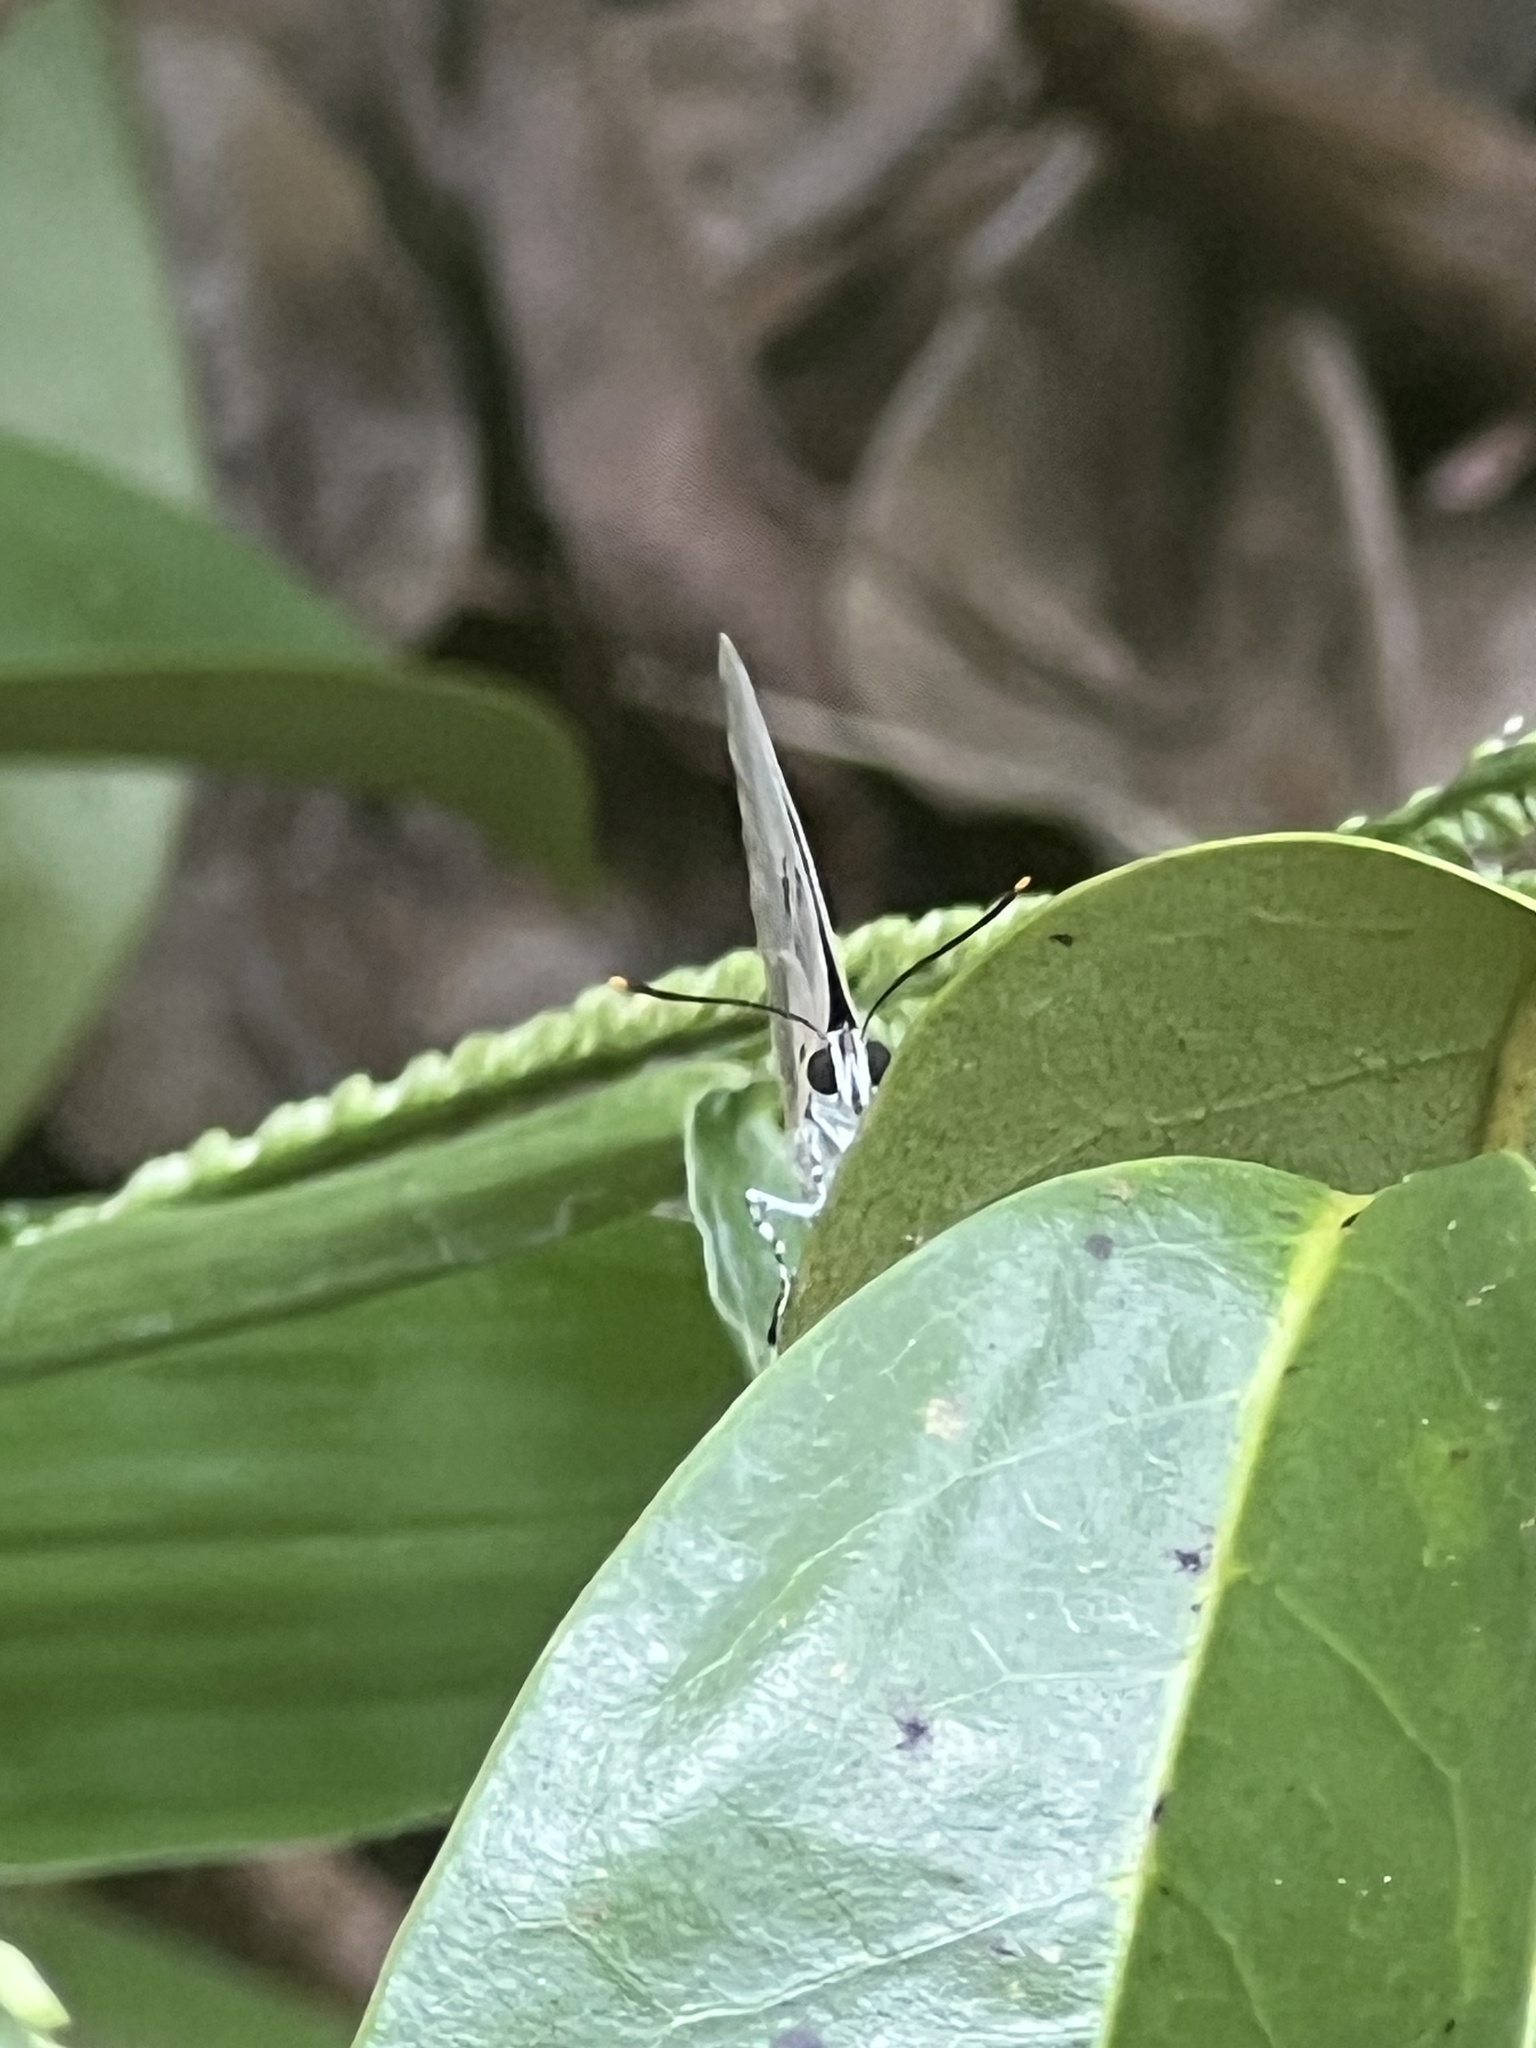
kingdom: Animalia
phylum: Arthropoda
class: Insecta
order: Lepidoptera
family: Lycaenidae
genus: Oenomaus
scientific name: Oenomaus ortygnus
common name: Aquamarine hairstreak
